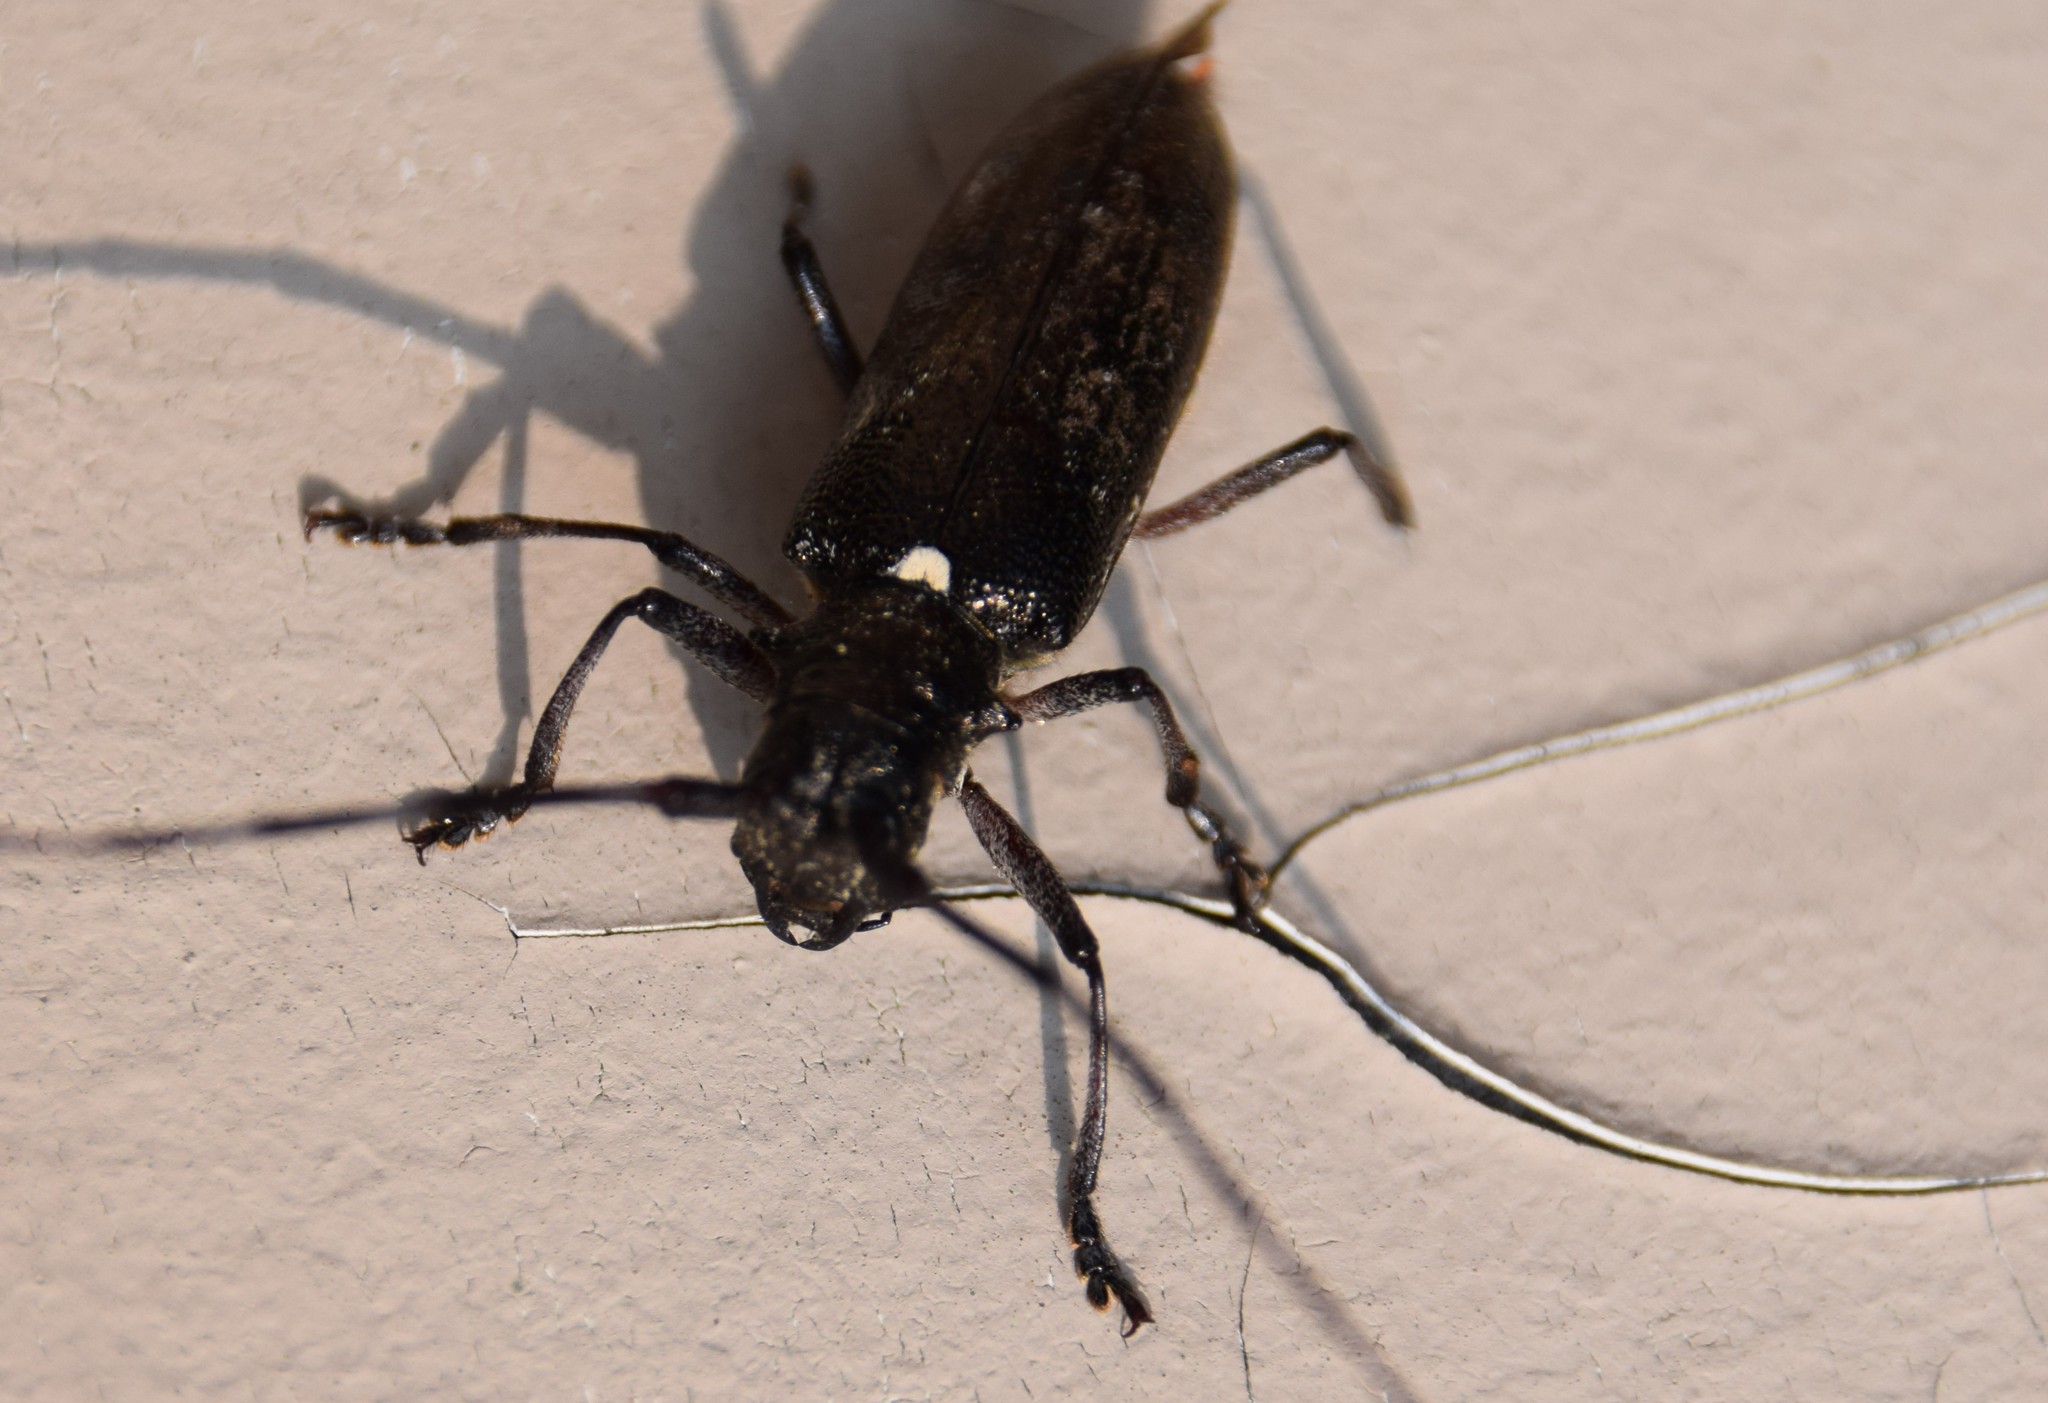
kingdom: Animalia
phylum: Arthropoda
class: Insecta
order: Coleoptera
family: Cerambycidae
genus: Monochamus
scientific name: Monochamus scutellatus
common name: White-spotted sawyer beetle
